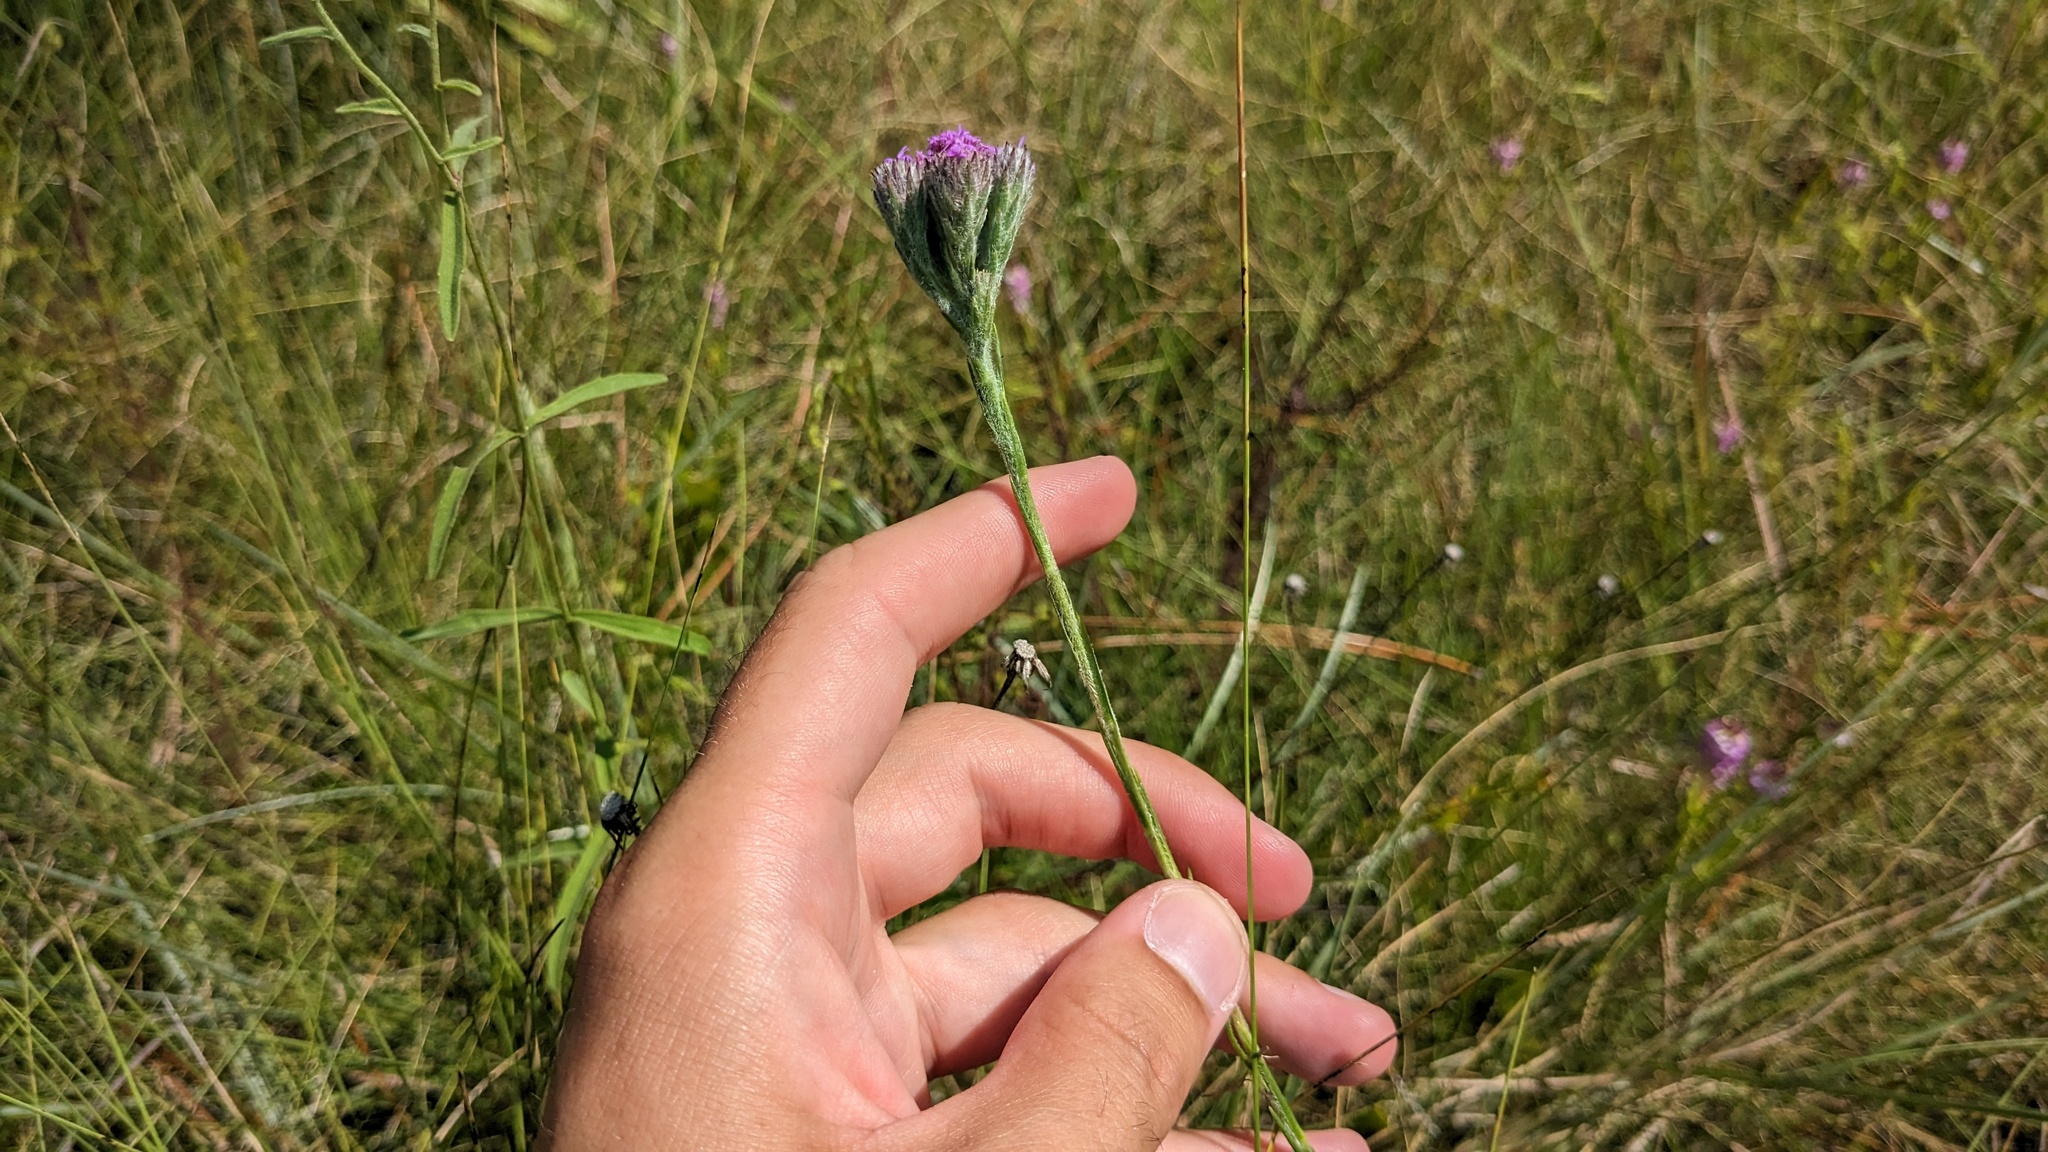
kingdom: Plantae
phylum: Tracheophyta
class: Magnoliopsida
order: Asterales
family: Asteraceae
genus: Carphephorus
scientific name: Carphephorus pseudoliatris
